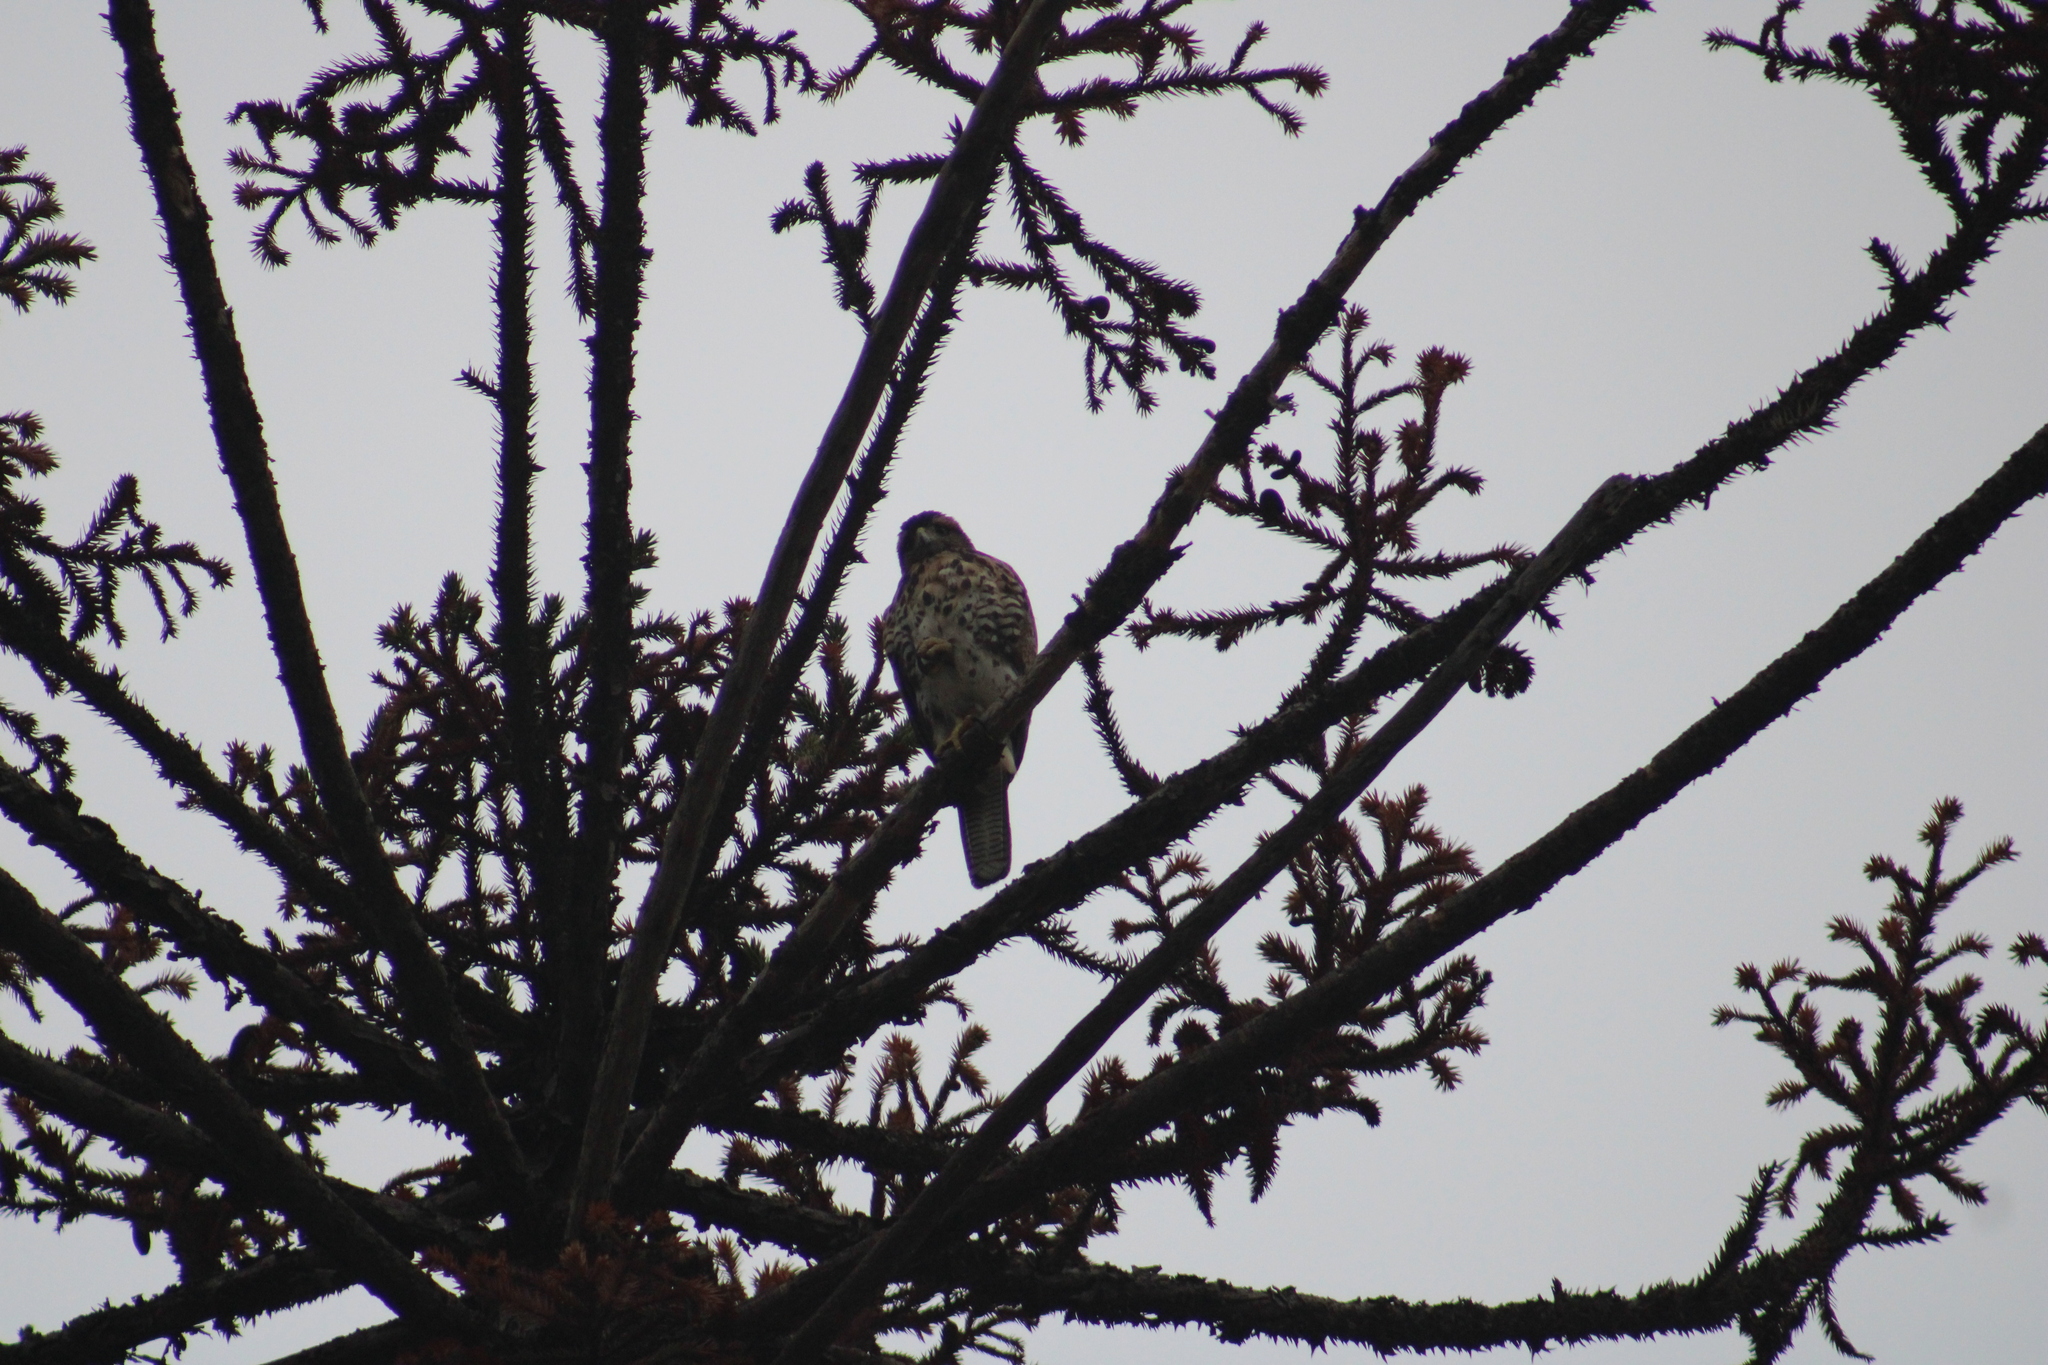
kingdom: Animalia
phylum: Chordata
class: Aves
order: Accipitriformes
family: Accipitridae
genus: Parabuteo
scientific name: Parabuteo unicinctus
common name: Harris's hawk
